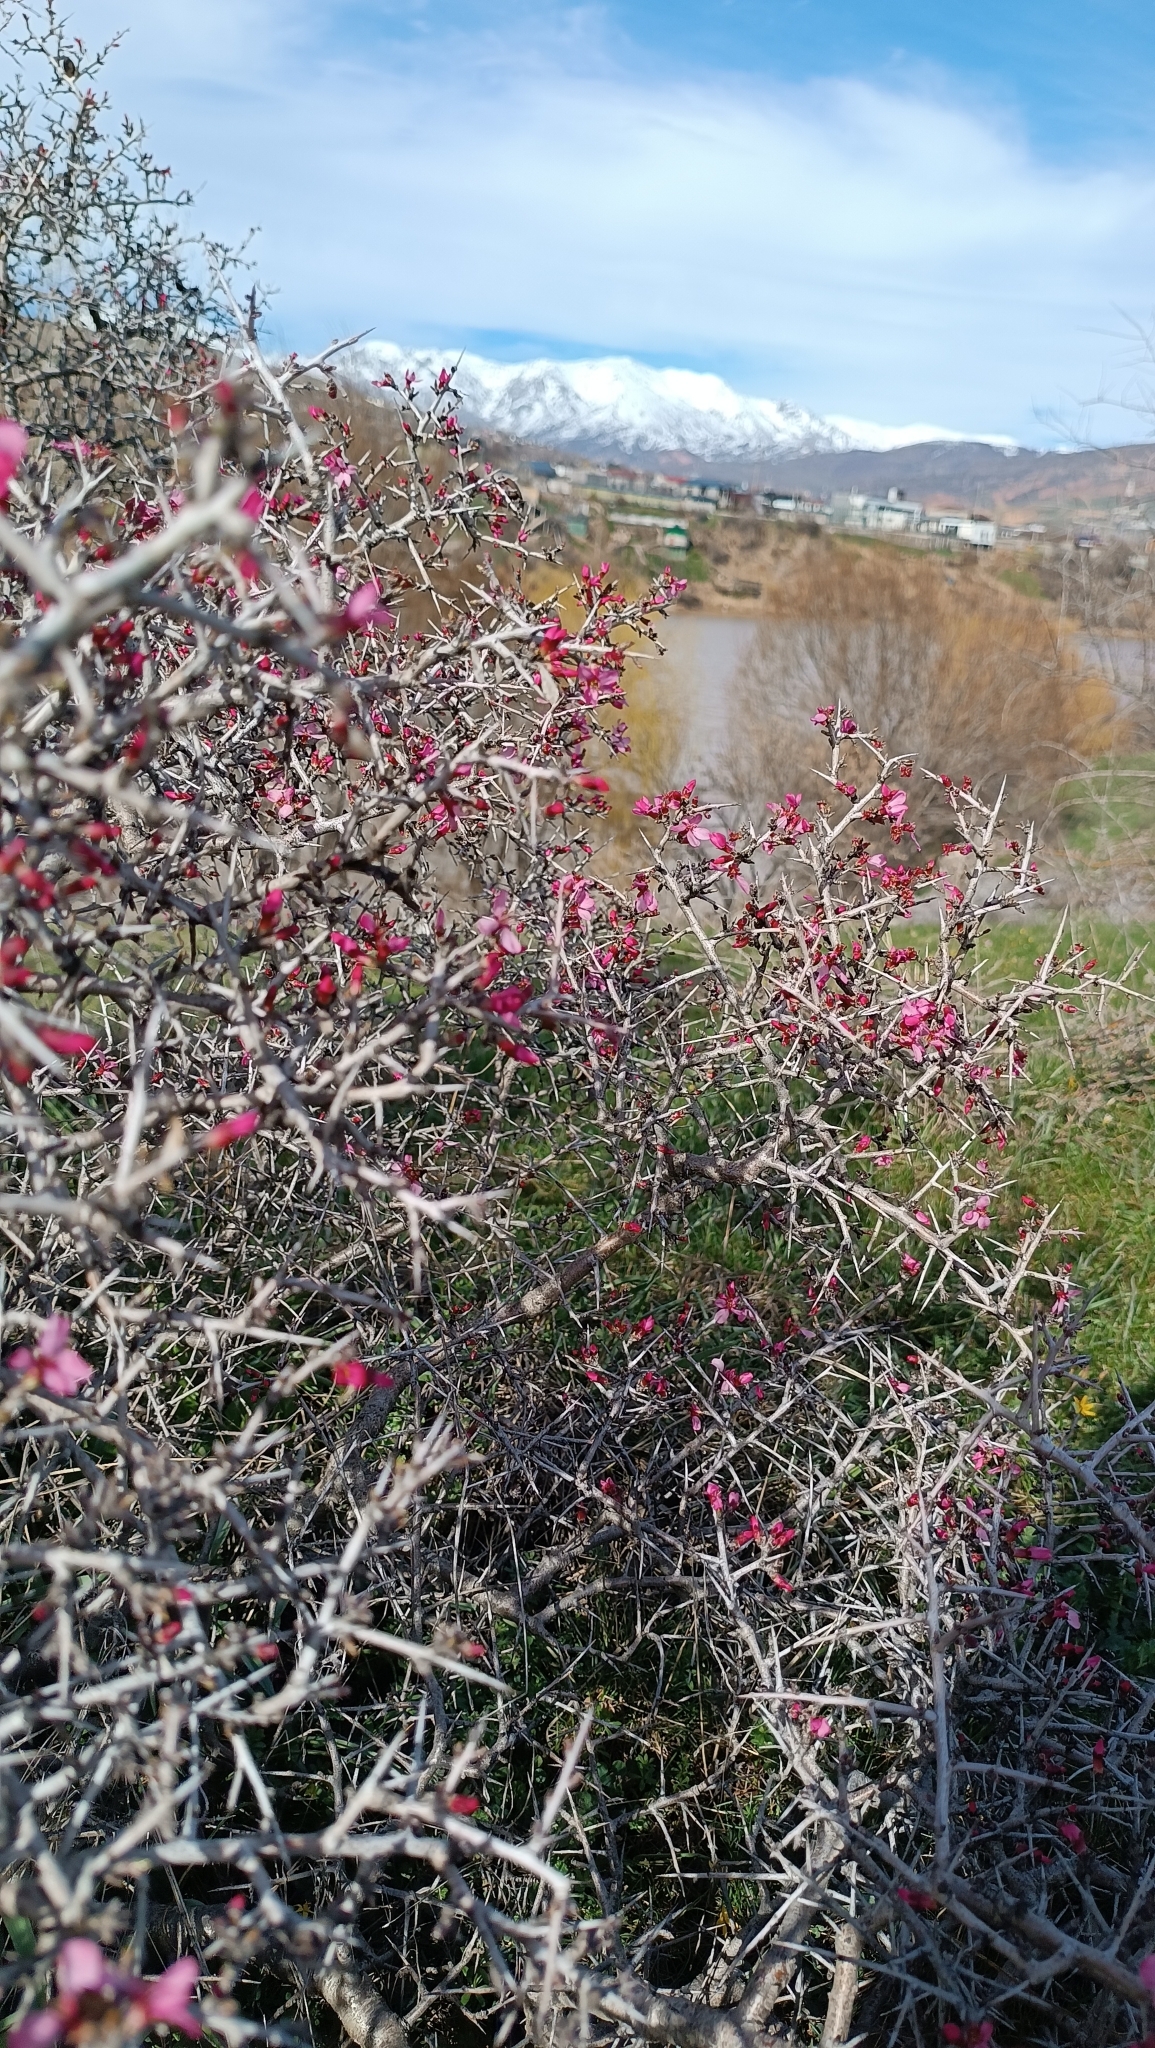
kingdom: Plantae
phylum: Tracheophyta
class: Magnoliopsida
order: Rosales
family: Rosaceae
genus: Prunus
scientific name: Prunus spinosissima
